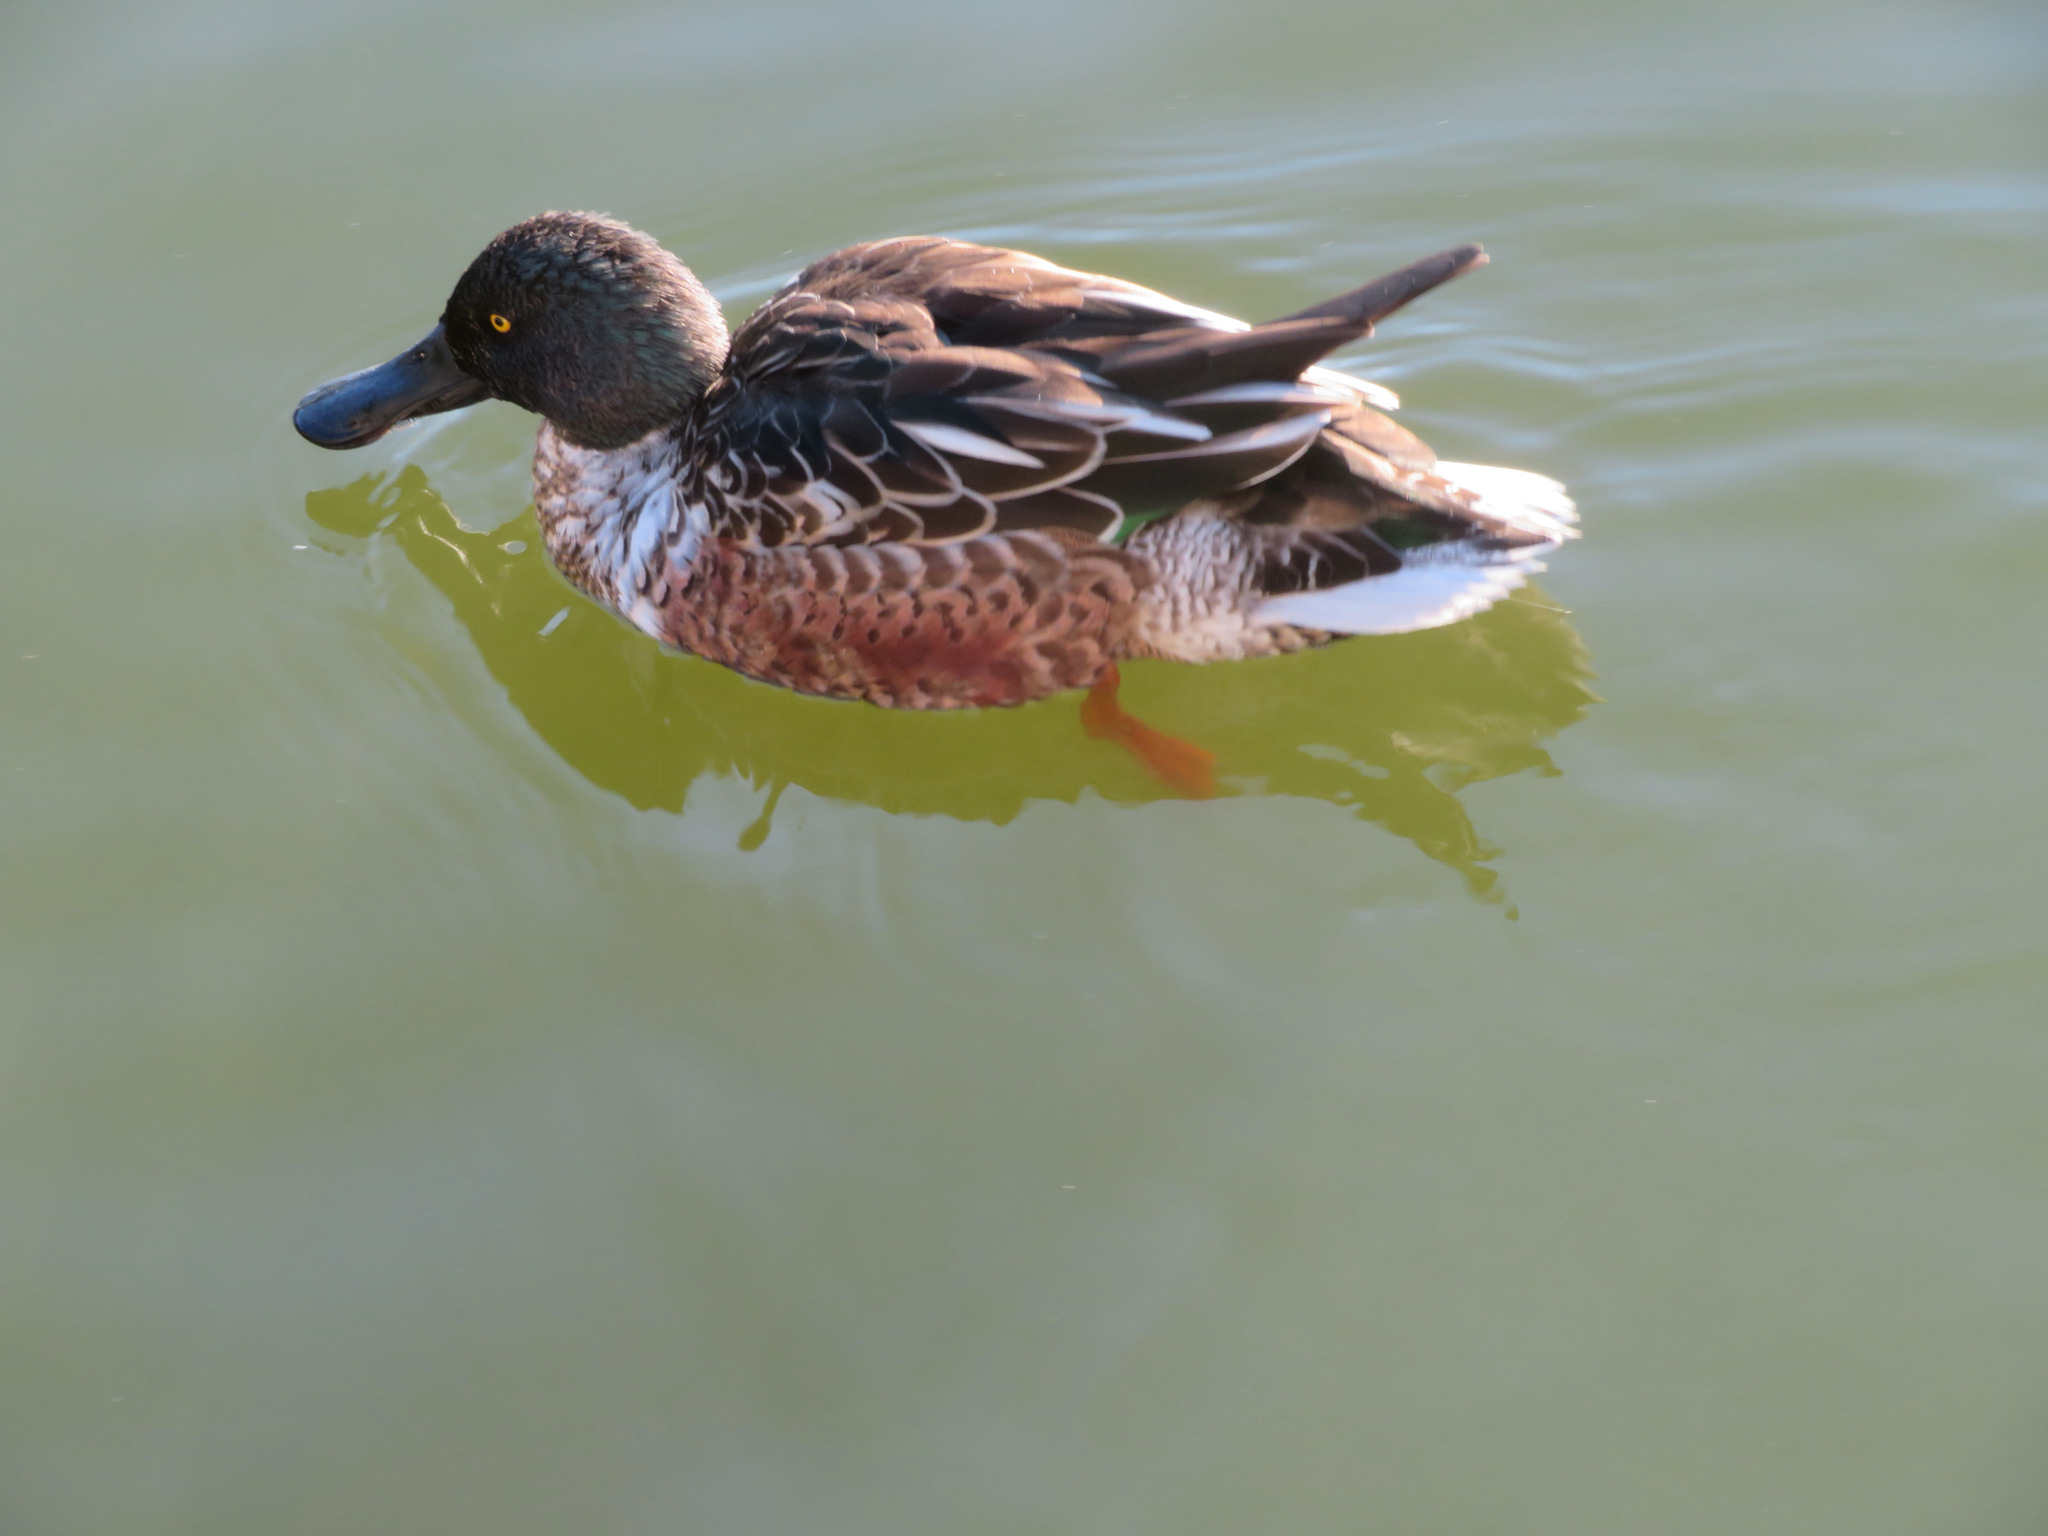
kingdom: Animalia
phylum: Chordata
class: Aves
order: Anseriformes
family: Anatidae
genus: Spatula
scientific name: Spatula clypeata
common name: Northern shoveler
